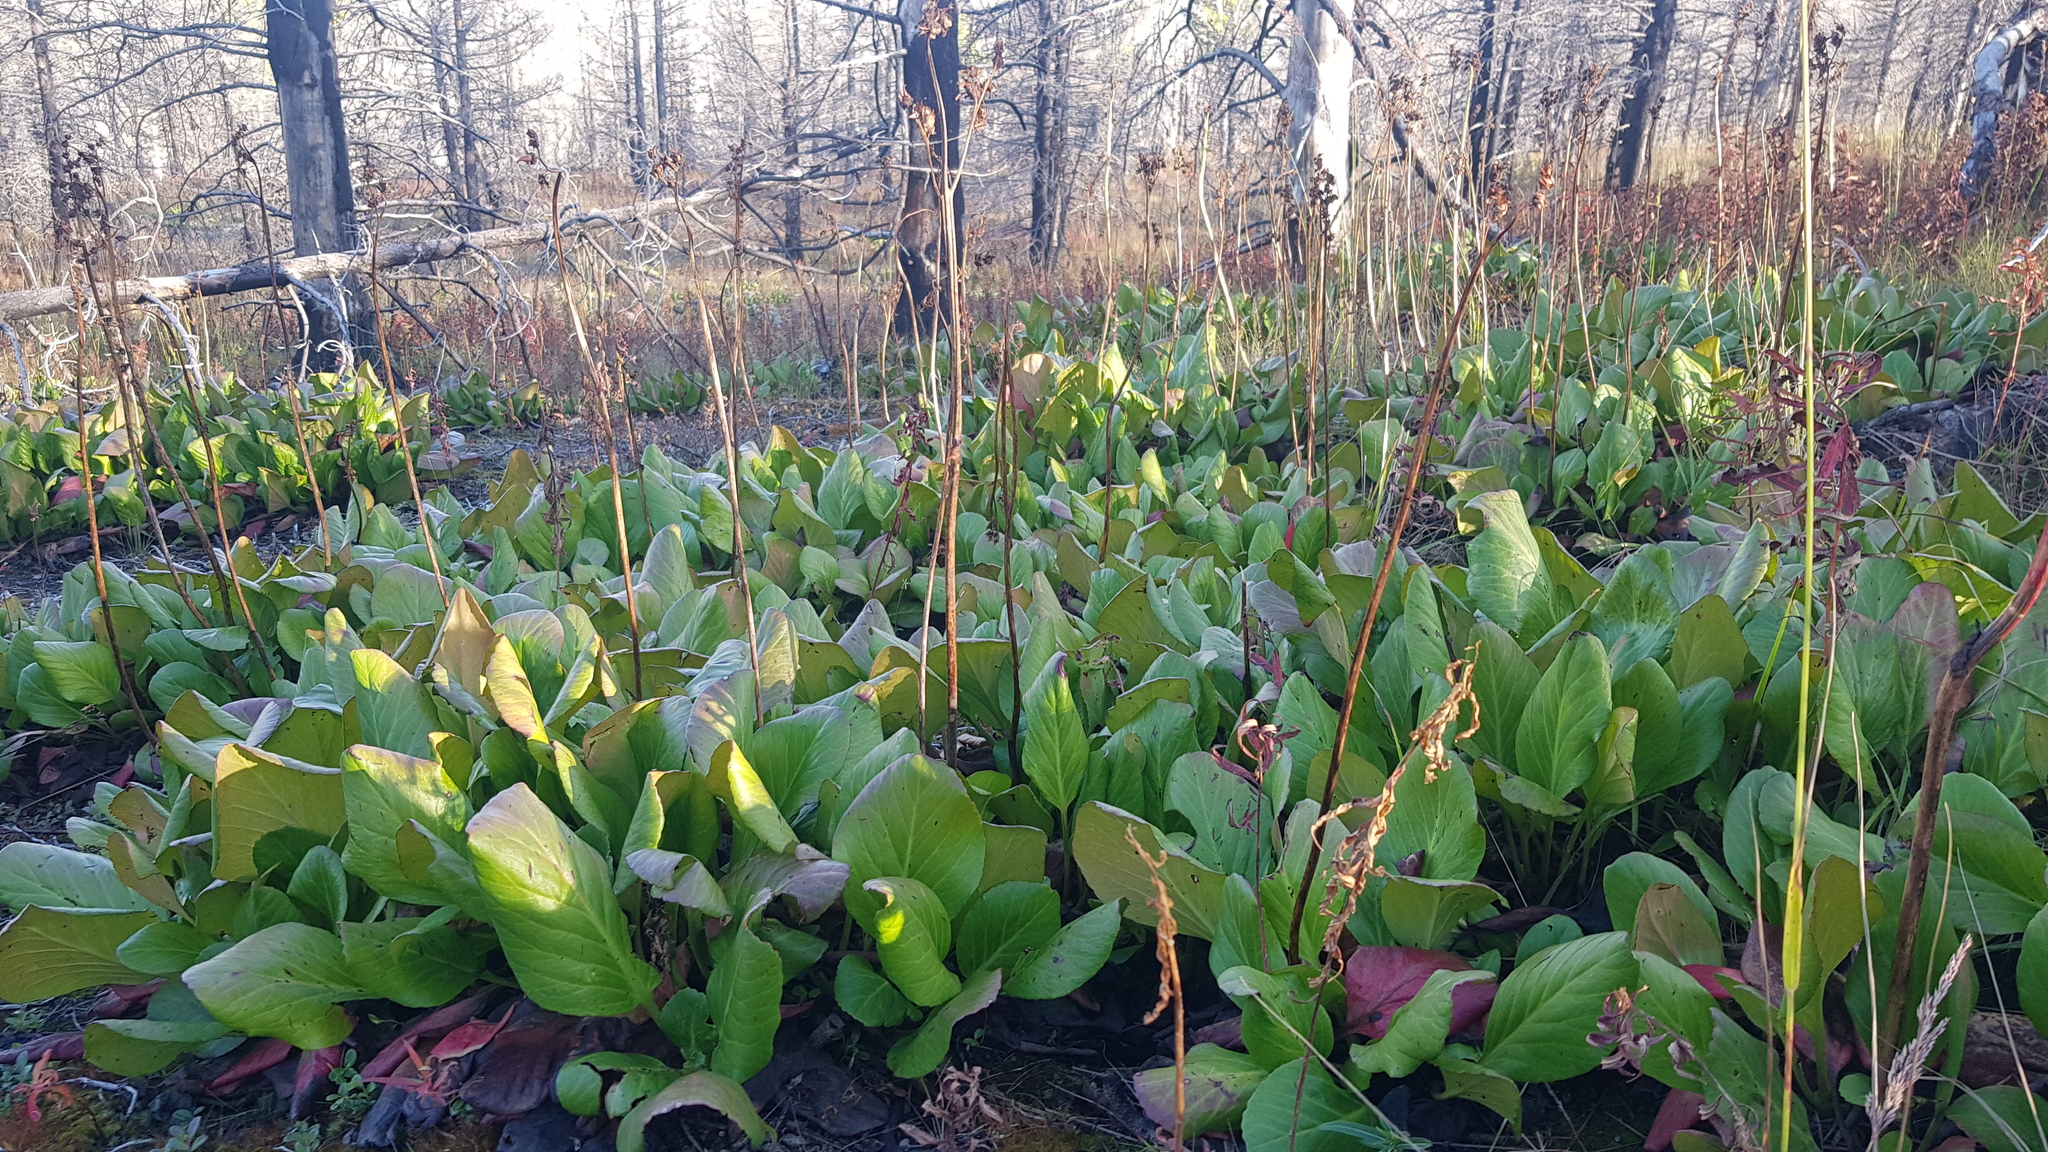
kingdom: Plantae
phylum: Tracheophyta
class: Magnoliopsida
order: Saxifragales
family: Saxifragaceae
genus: Bergenia
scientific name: Bergenia crassifolia
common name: Elephant-ears
